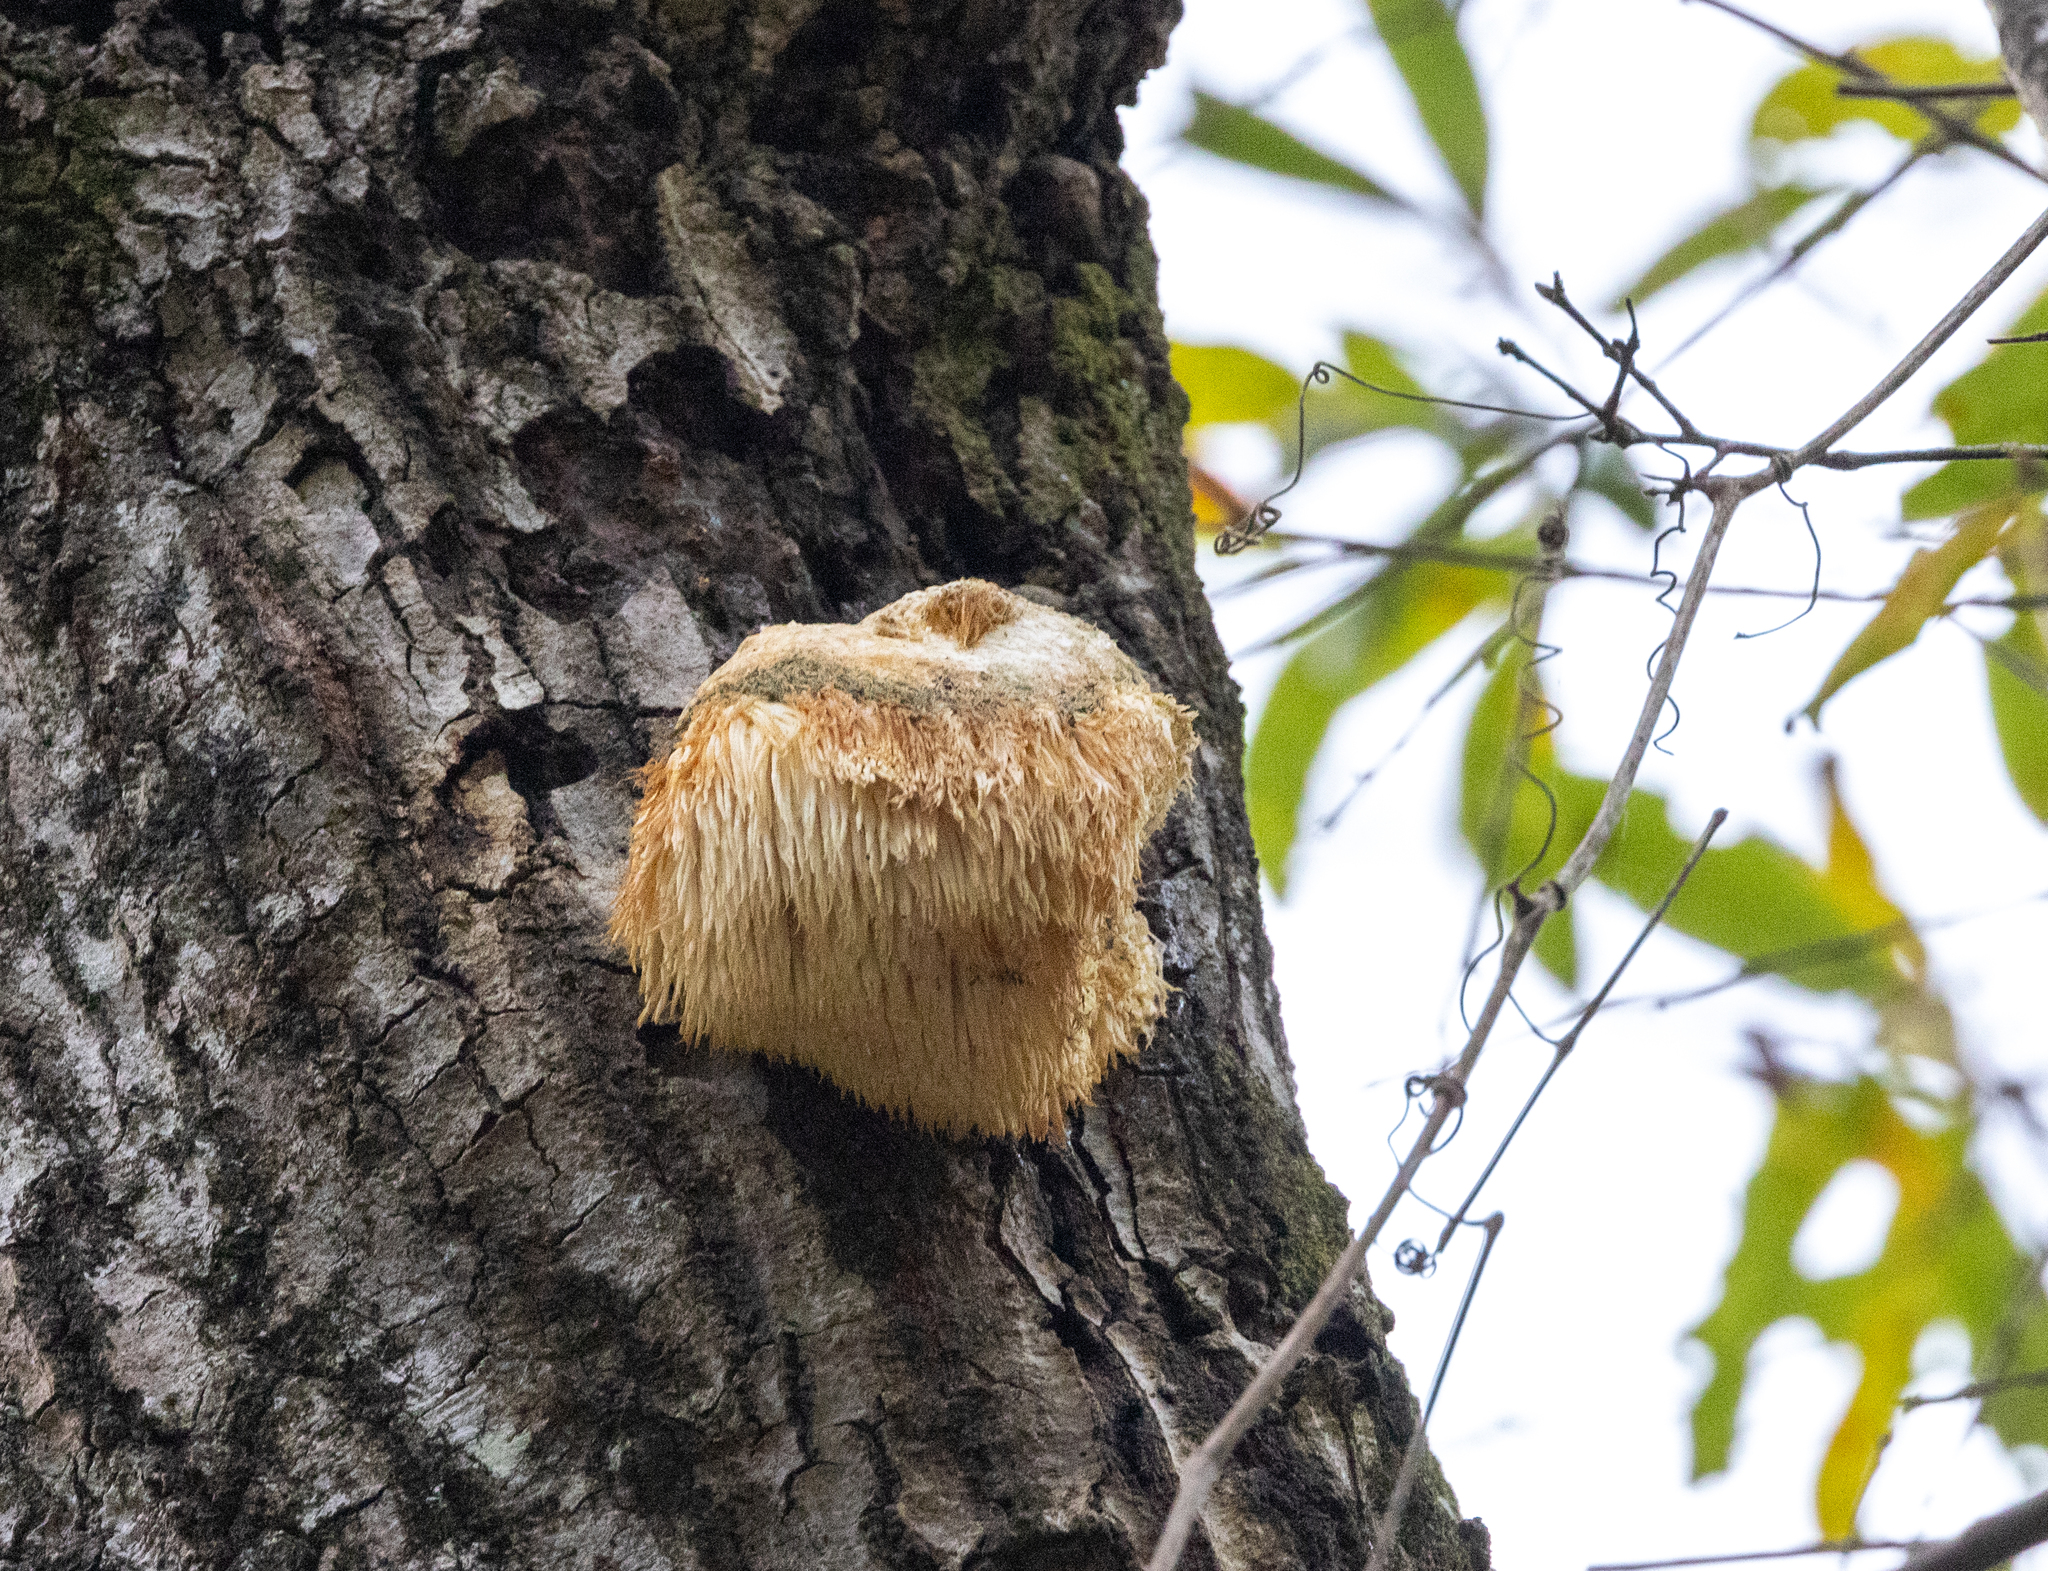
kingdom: Fungi
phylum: Basidiomycota
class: Agaricomycetes
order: Russulales
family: Hericiaceae
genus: Hericium
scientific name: Hericium erinaceus
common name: Bearded tooth
